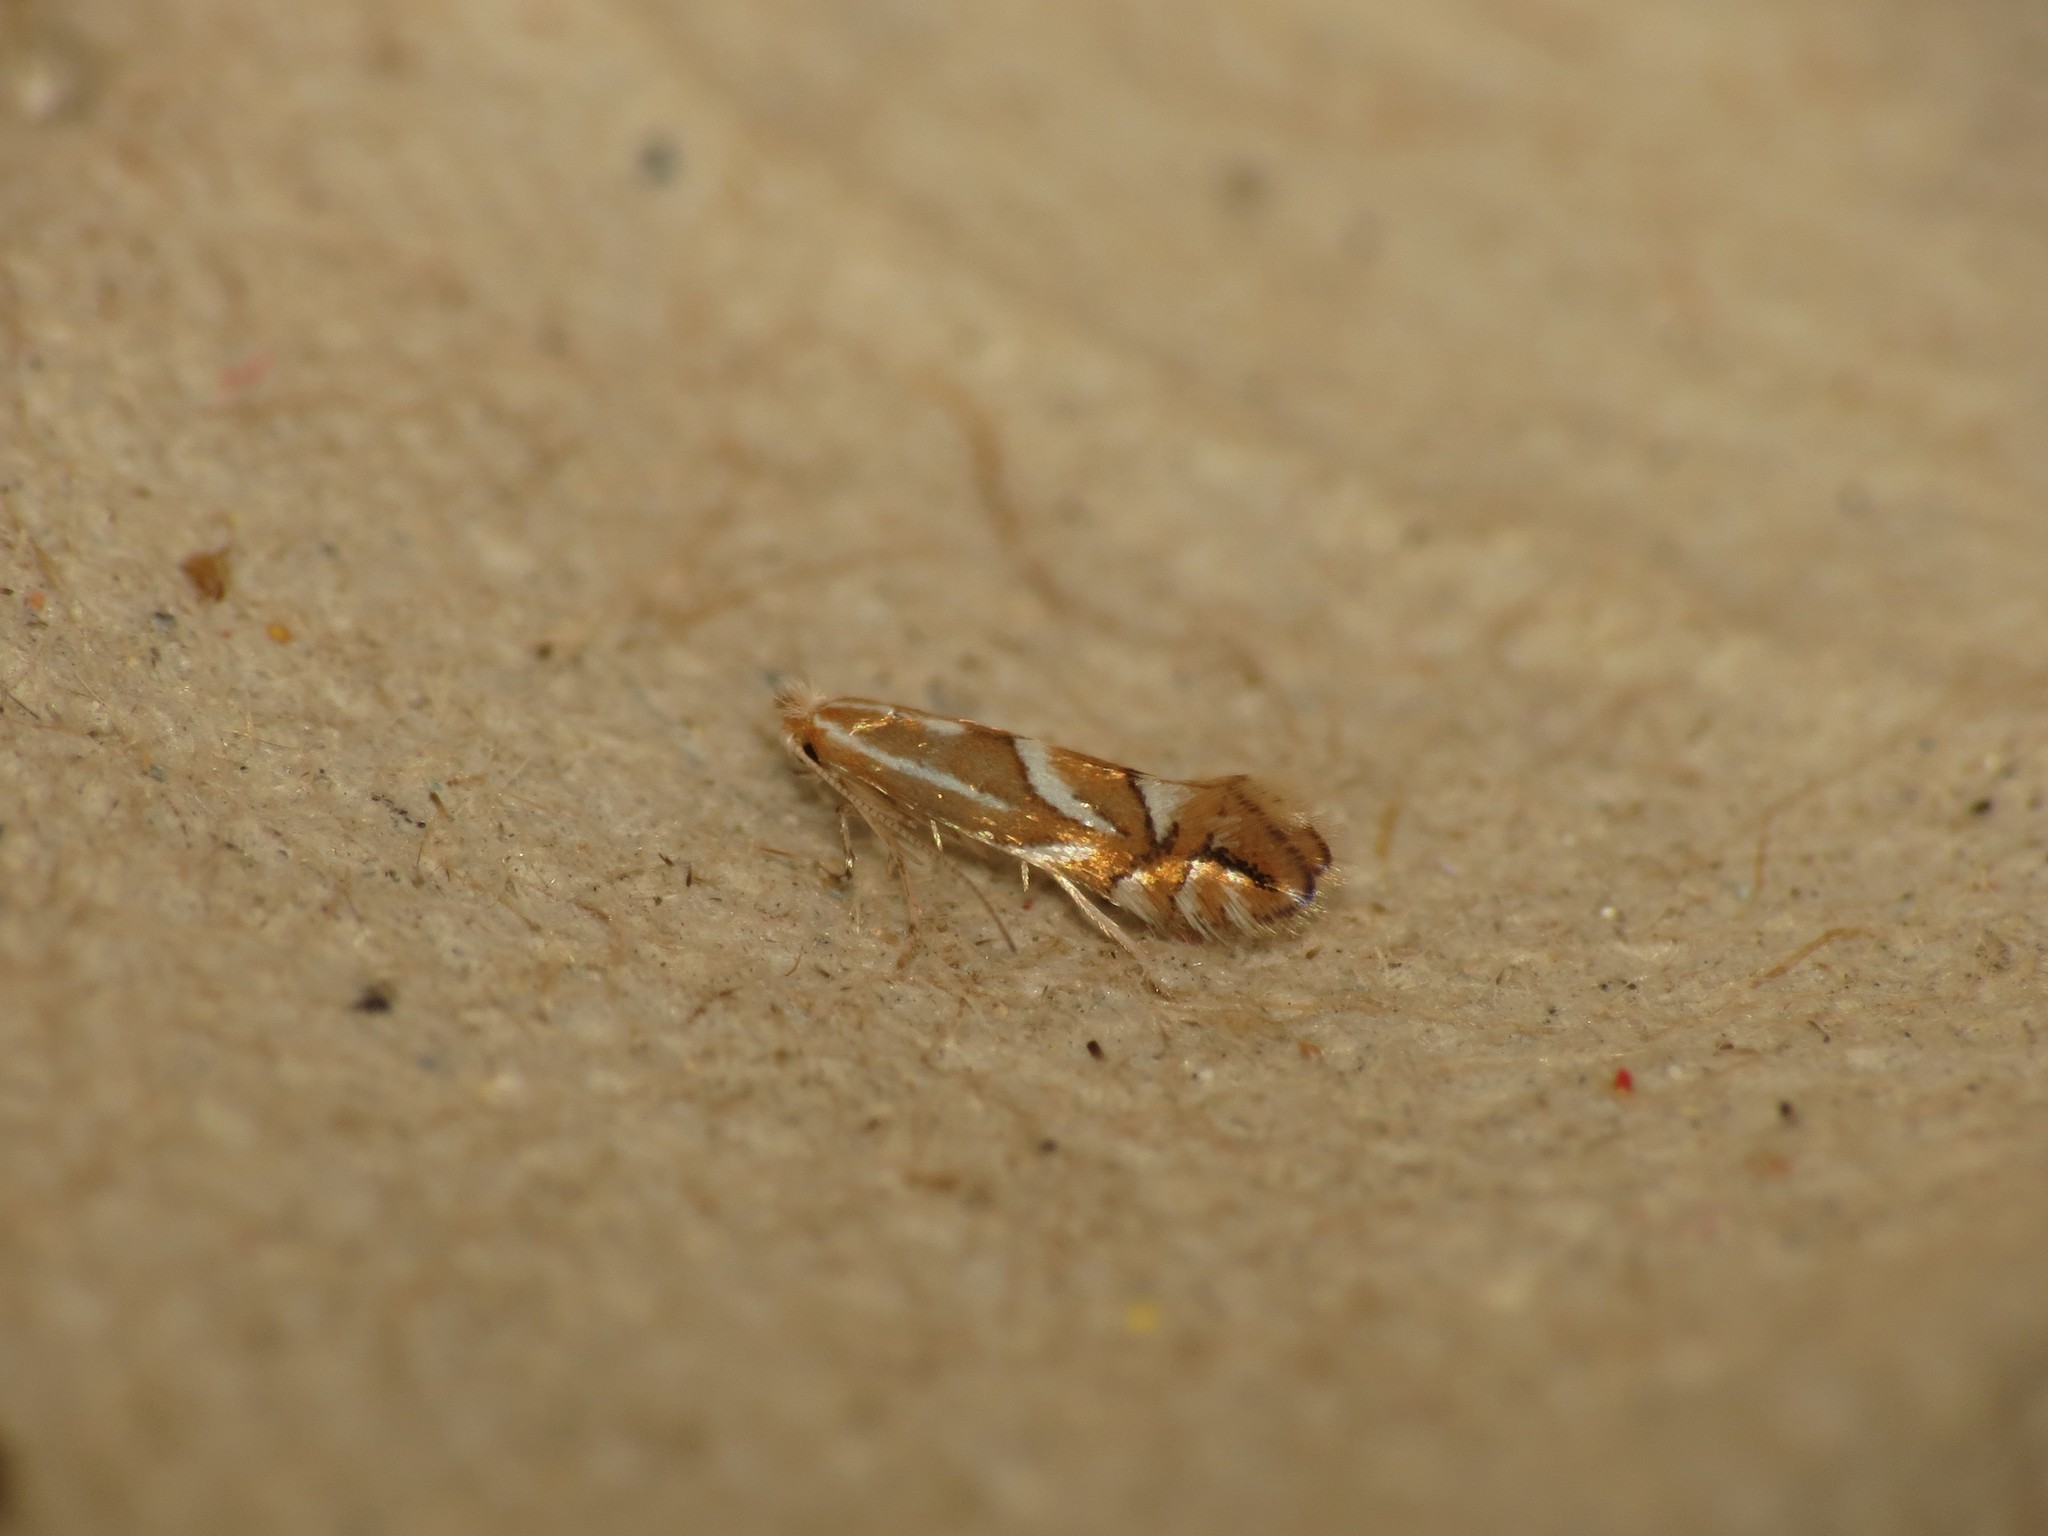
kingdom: Animalia
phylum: Arthropoda
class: Insecta
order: Lepidoptera
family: Gracillariidae
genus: Phyllonorycter
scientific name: Phyllonorycter dubitella
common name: Southern midget
